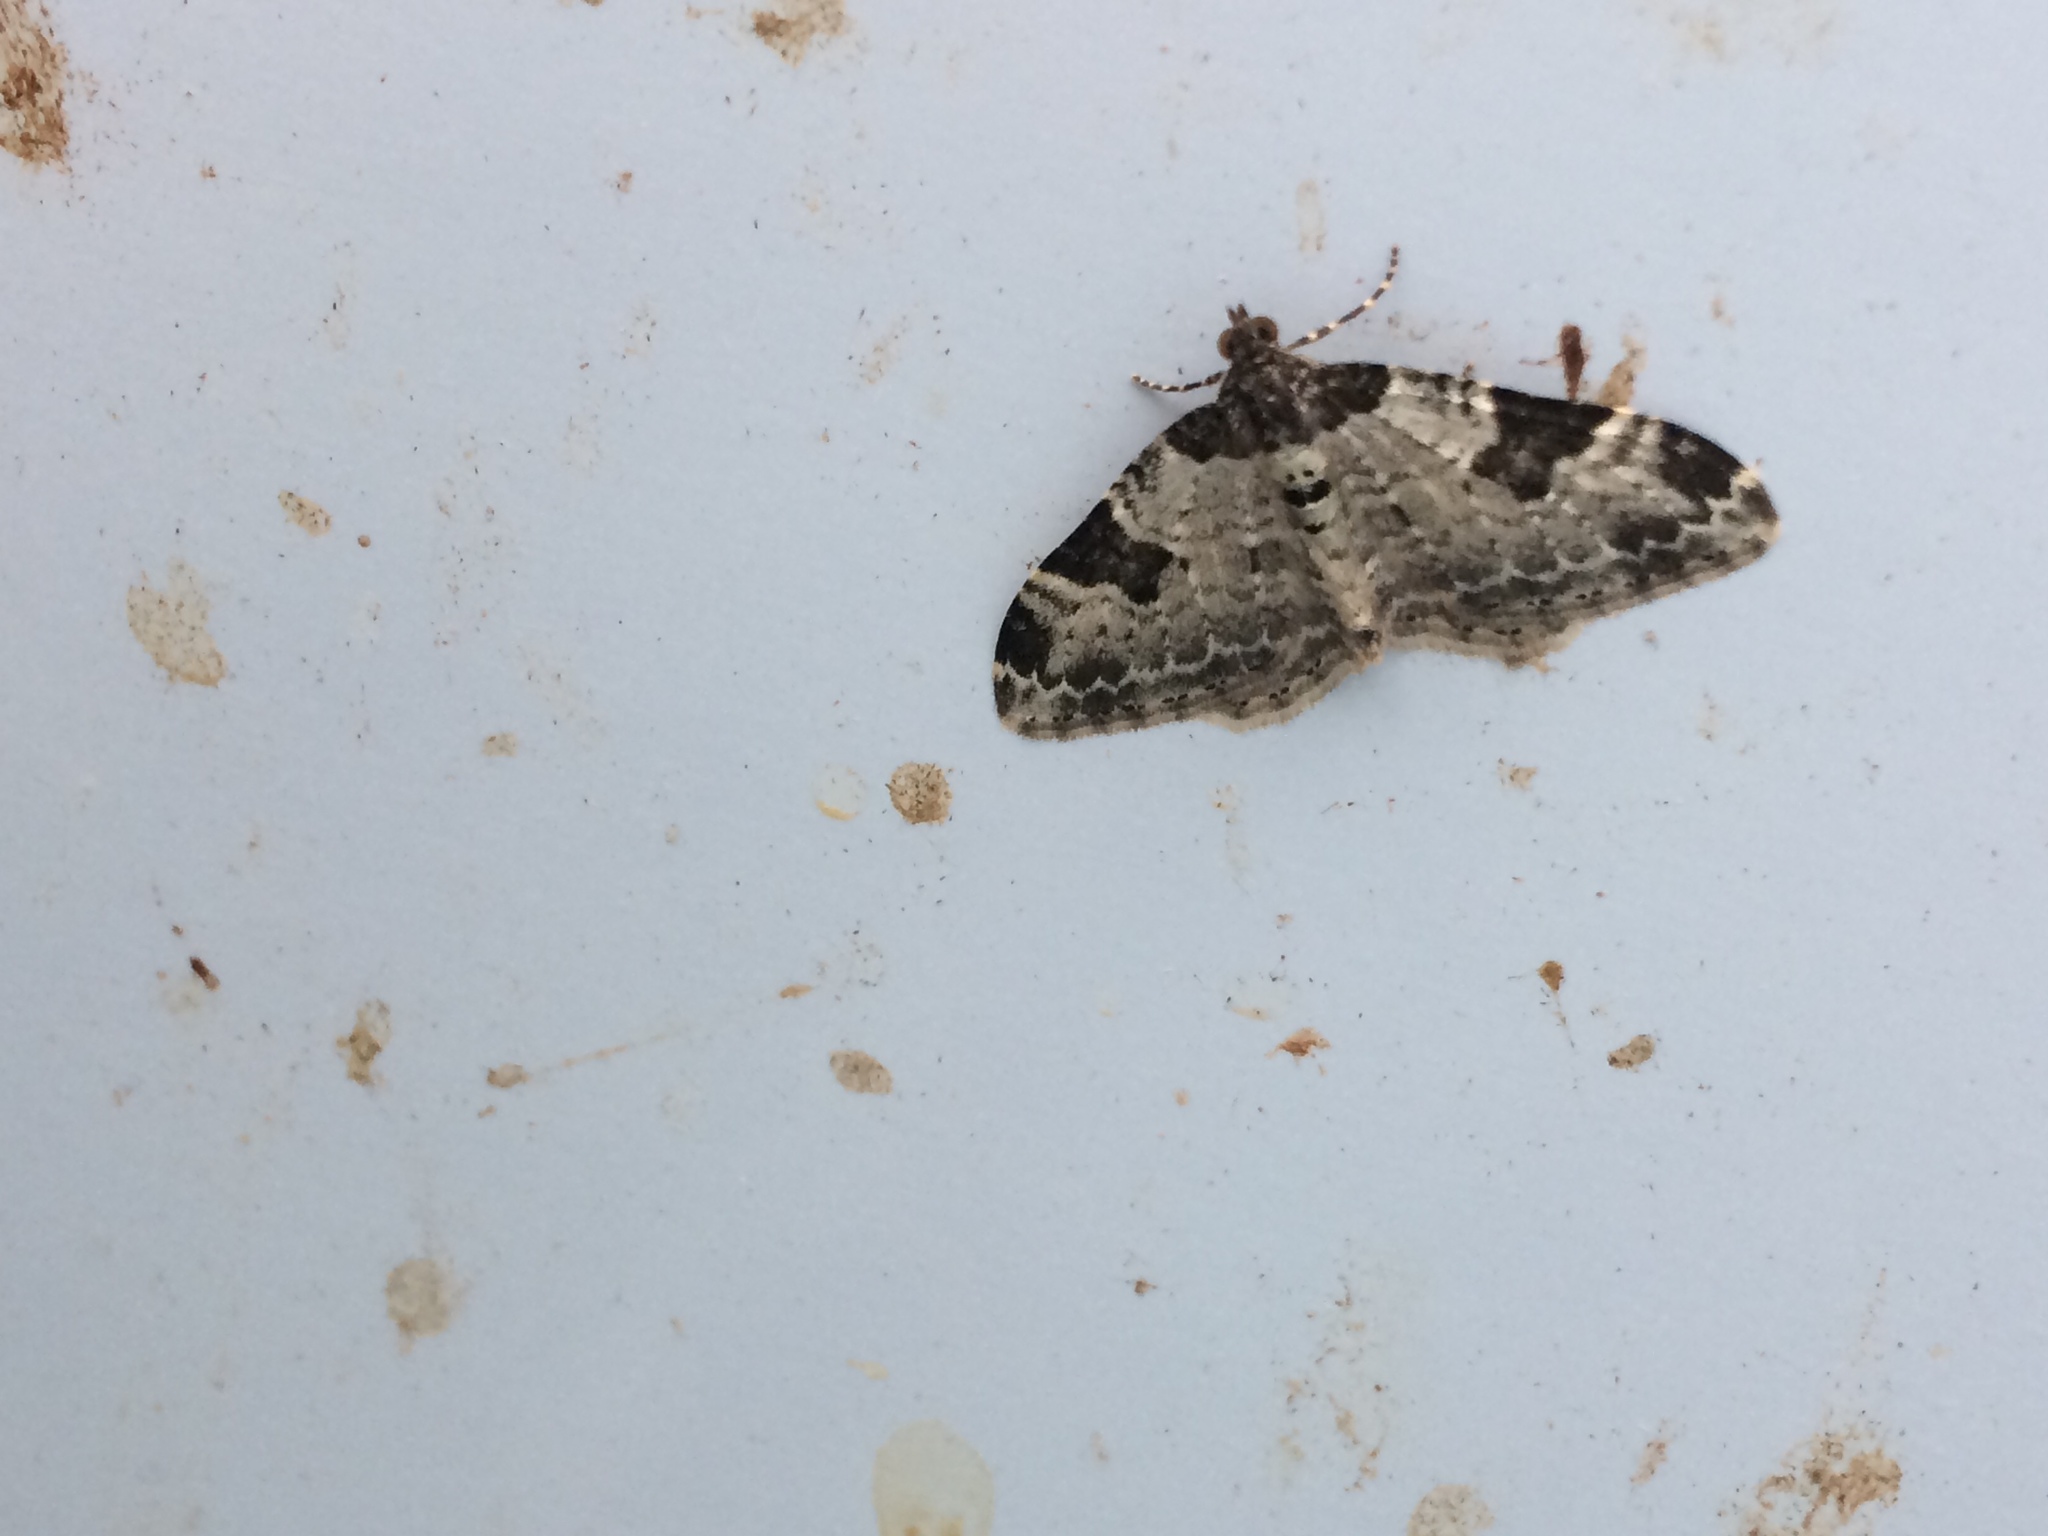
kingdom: Animalia
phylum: Arthropoda
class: Insecta
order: Lepidoptera
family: Geometridae
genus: Xanthorhoe
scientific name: Xanthorhoe fluctuata
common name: Garden carpet
